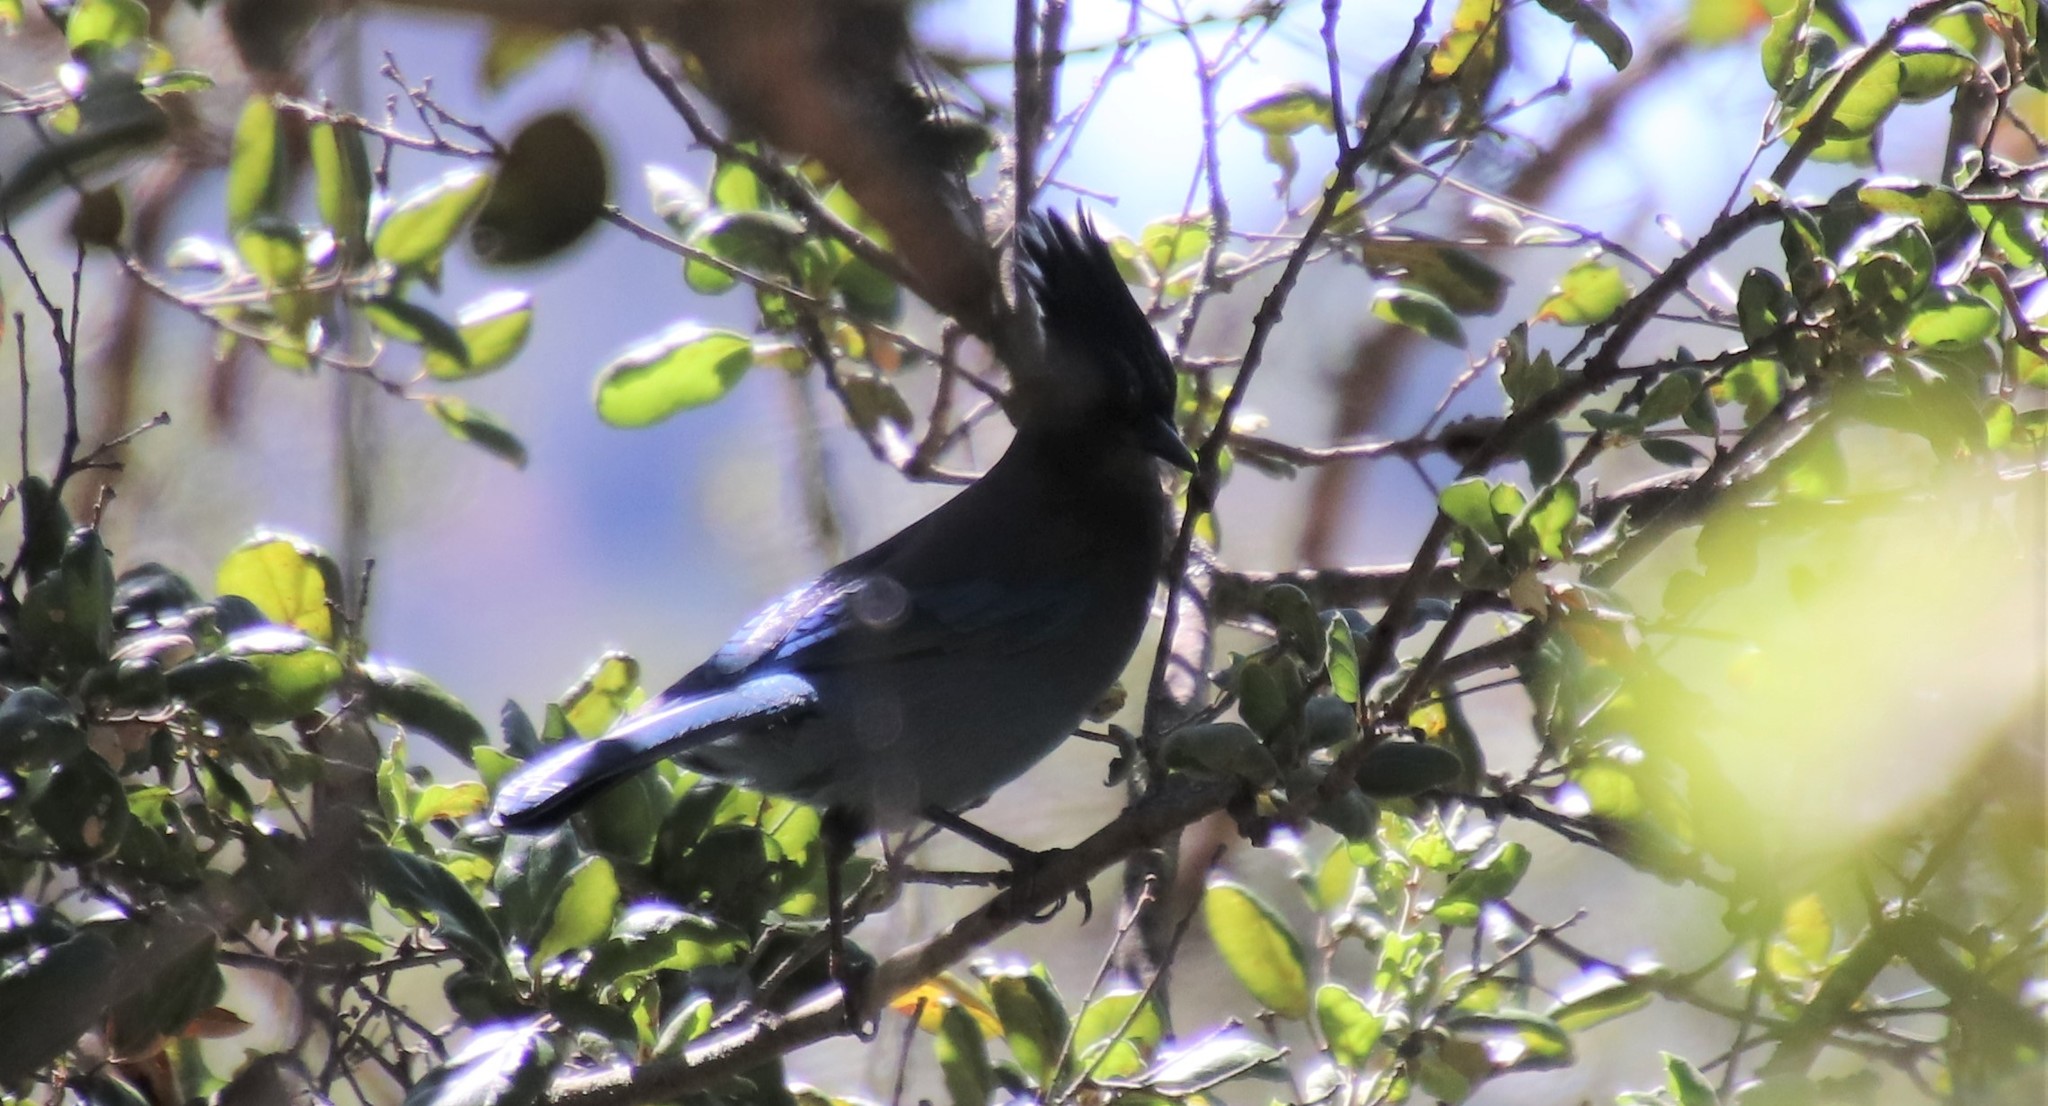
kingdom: Animalia
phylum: Chordata
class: Aves
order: Passeriformes
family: Corvidae
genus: Cyanocitta
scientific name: Cyanocitta stelleri
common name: Steller's jay
